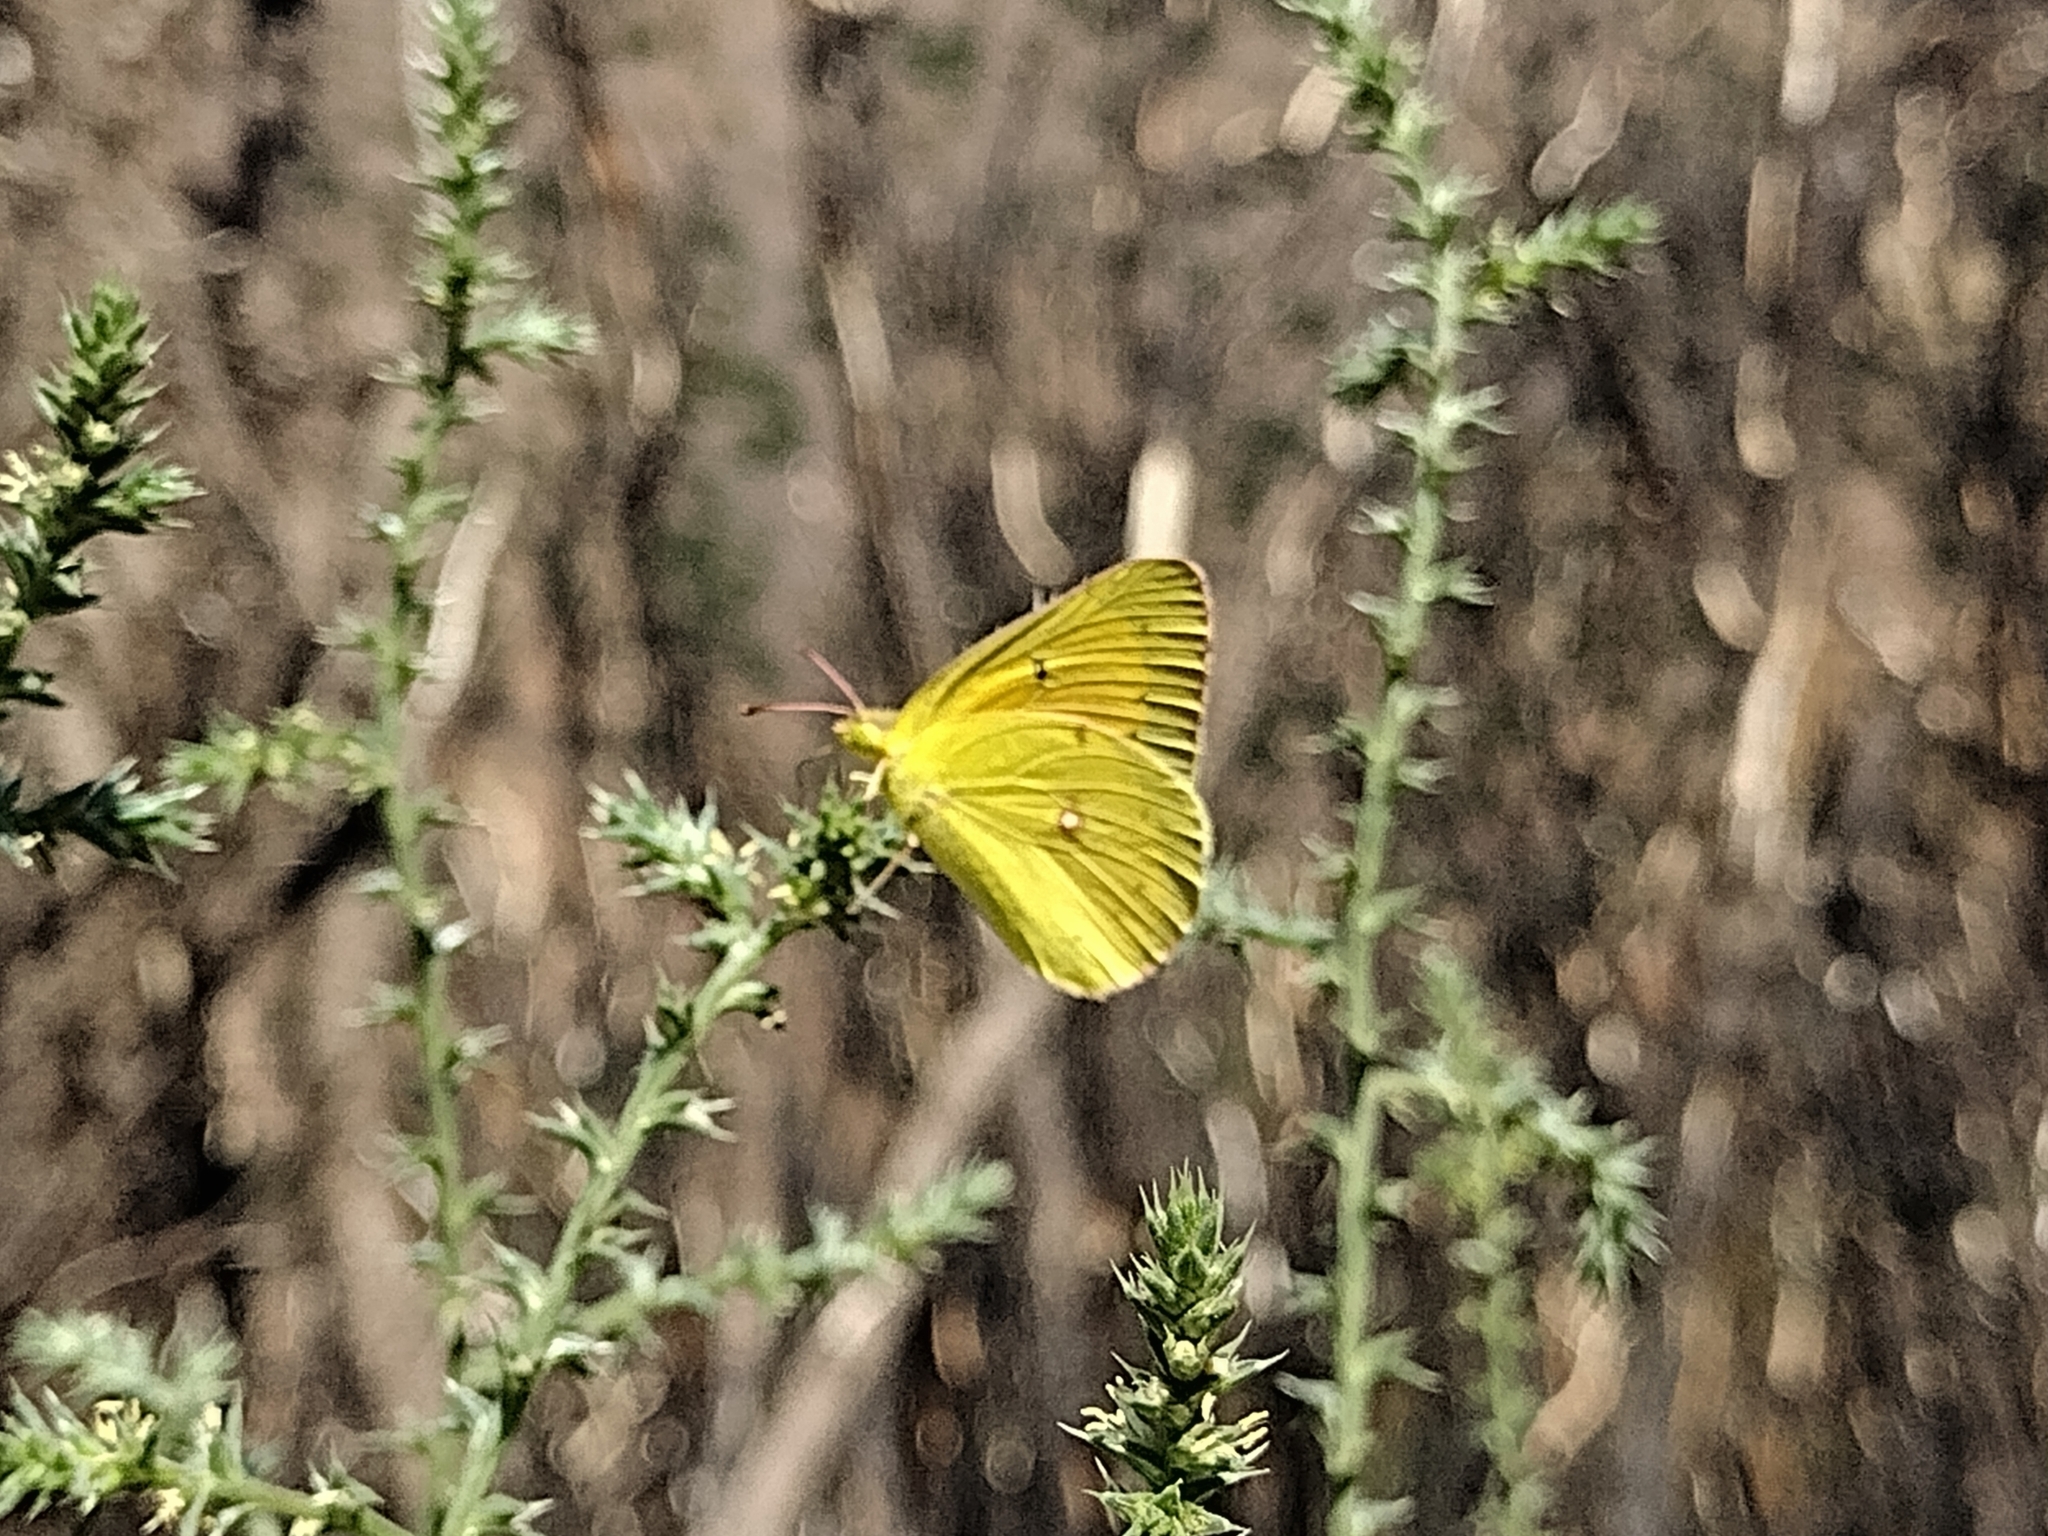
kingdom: Animalia
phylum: Arthropoda
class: Insecta
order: Lepidoptera
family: Pieridae
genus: Colias
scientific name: Colias eurytheme
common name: Alfalfa butterfly
